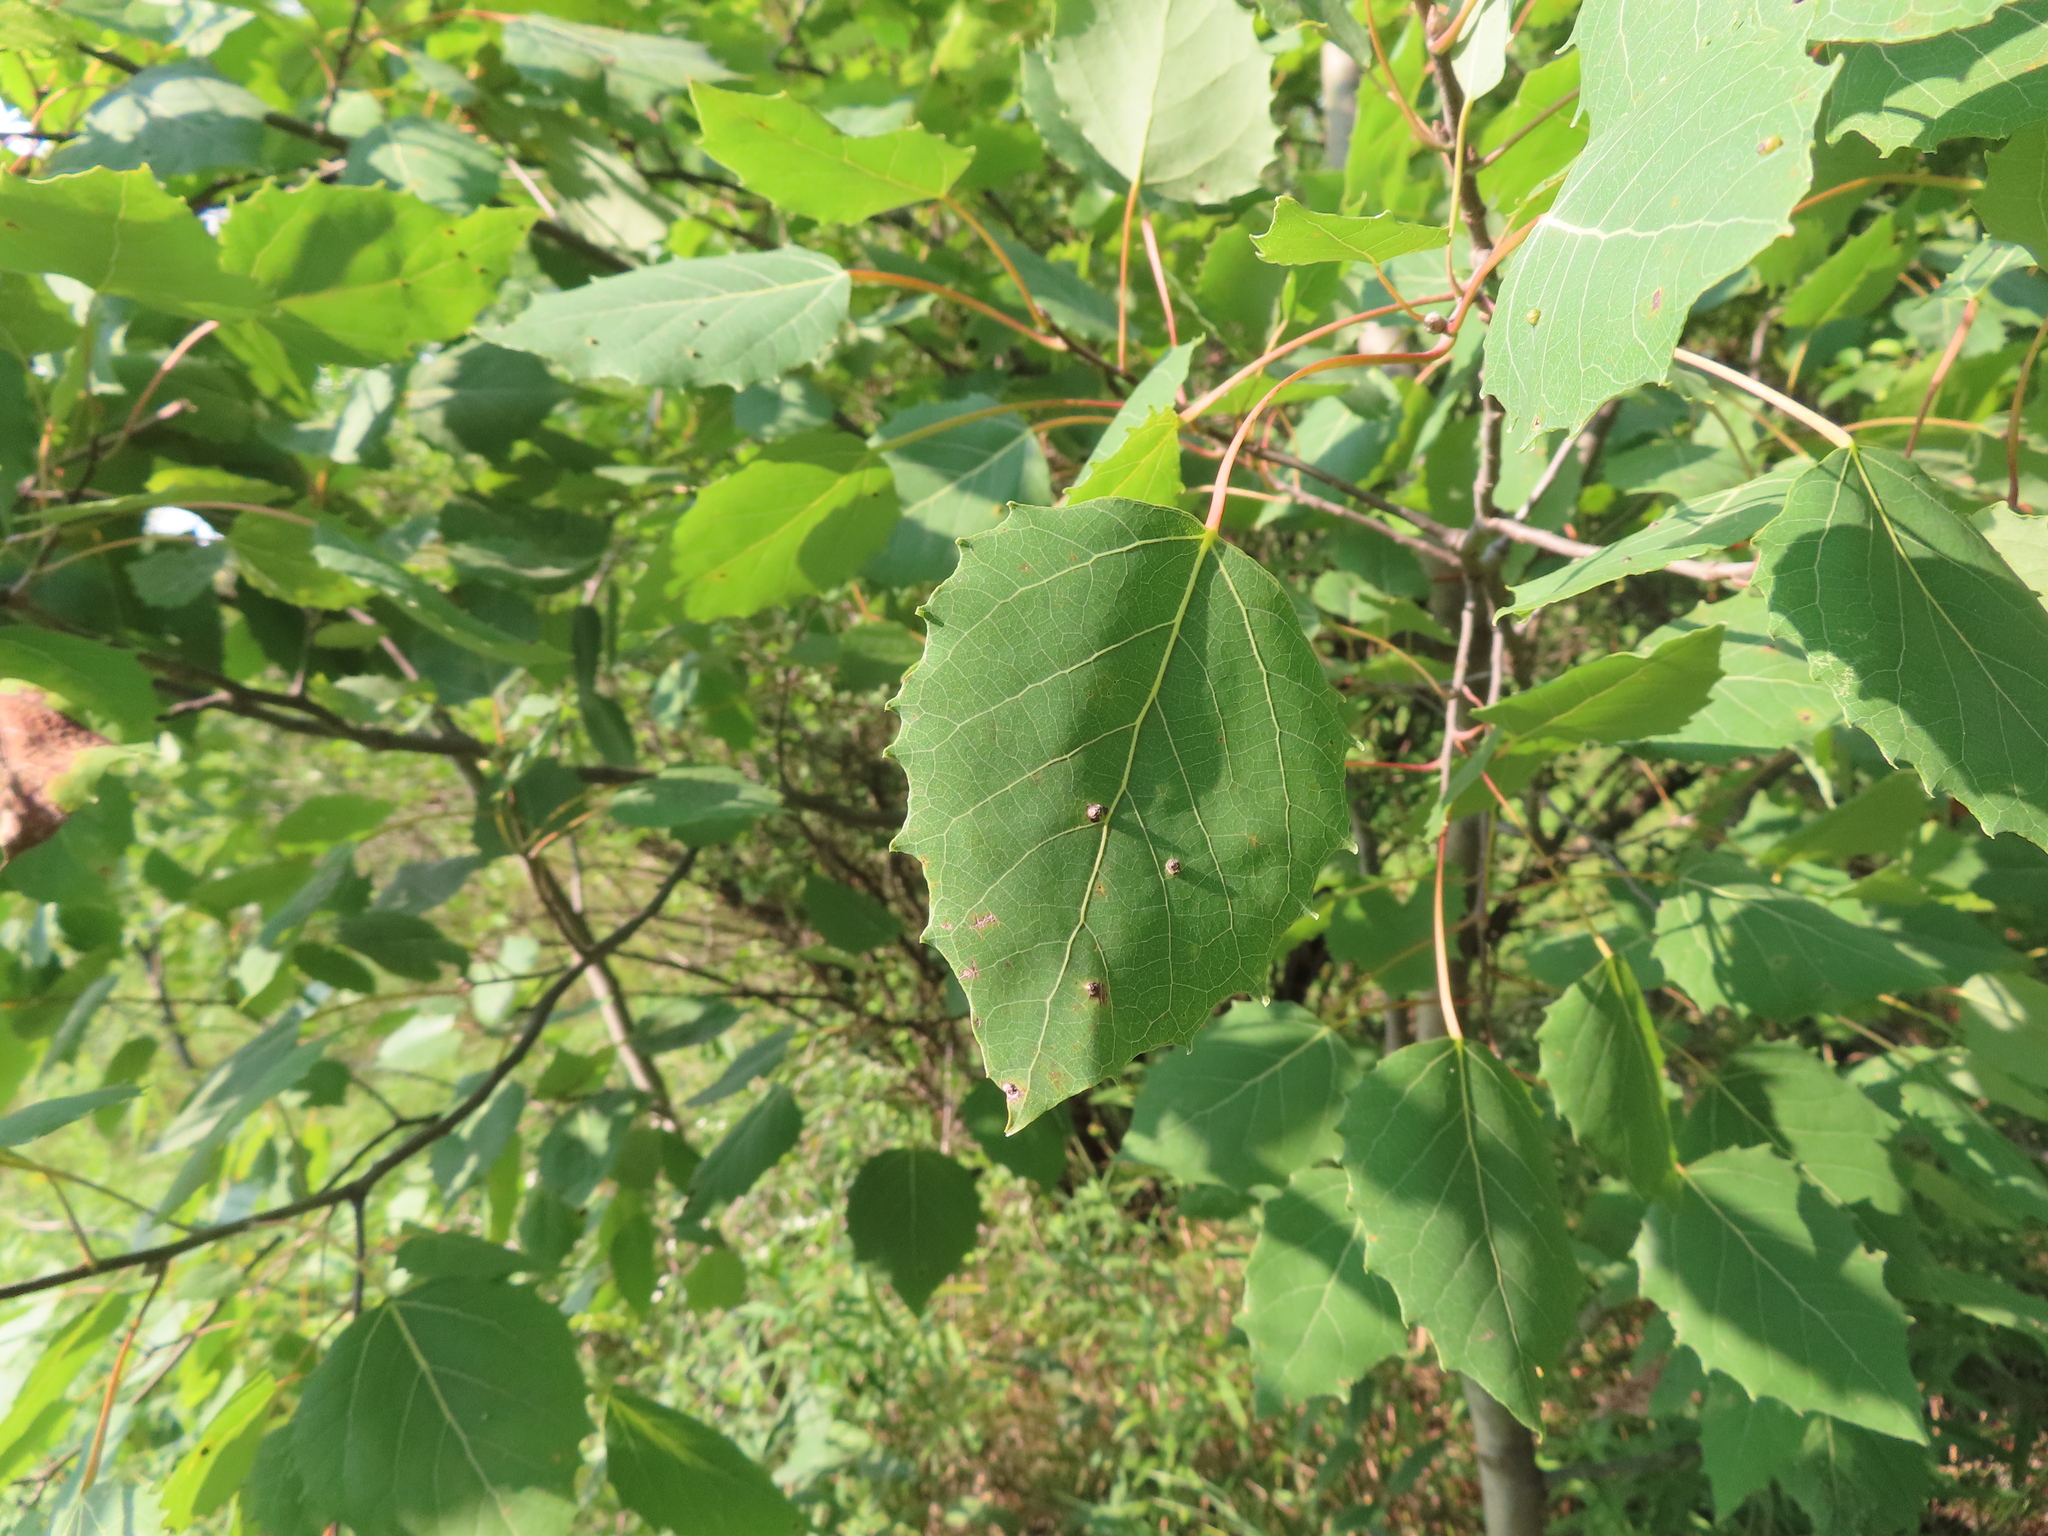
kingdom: Plantae
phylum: Tracheophyta
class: Magnoliopsida
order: Malpighiales
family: Salicaceae
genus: Populus
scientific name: Populus grandidentata
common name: Bigtooth aspen
